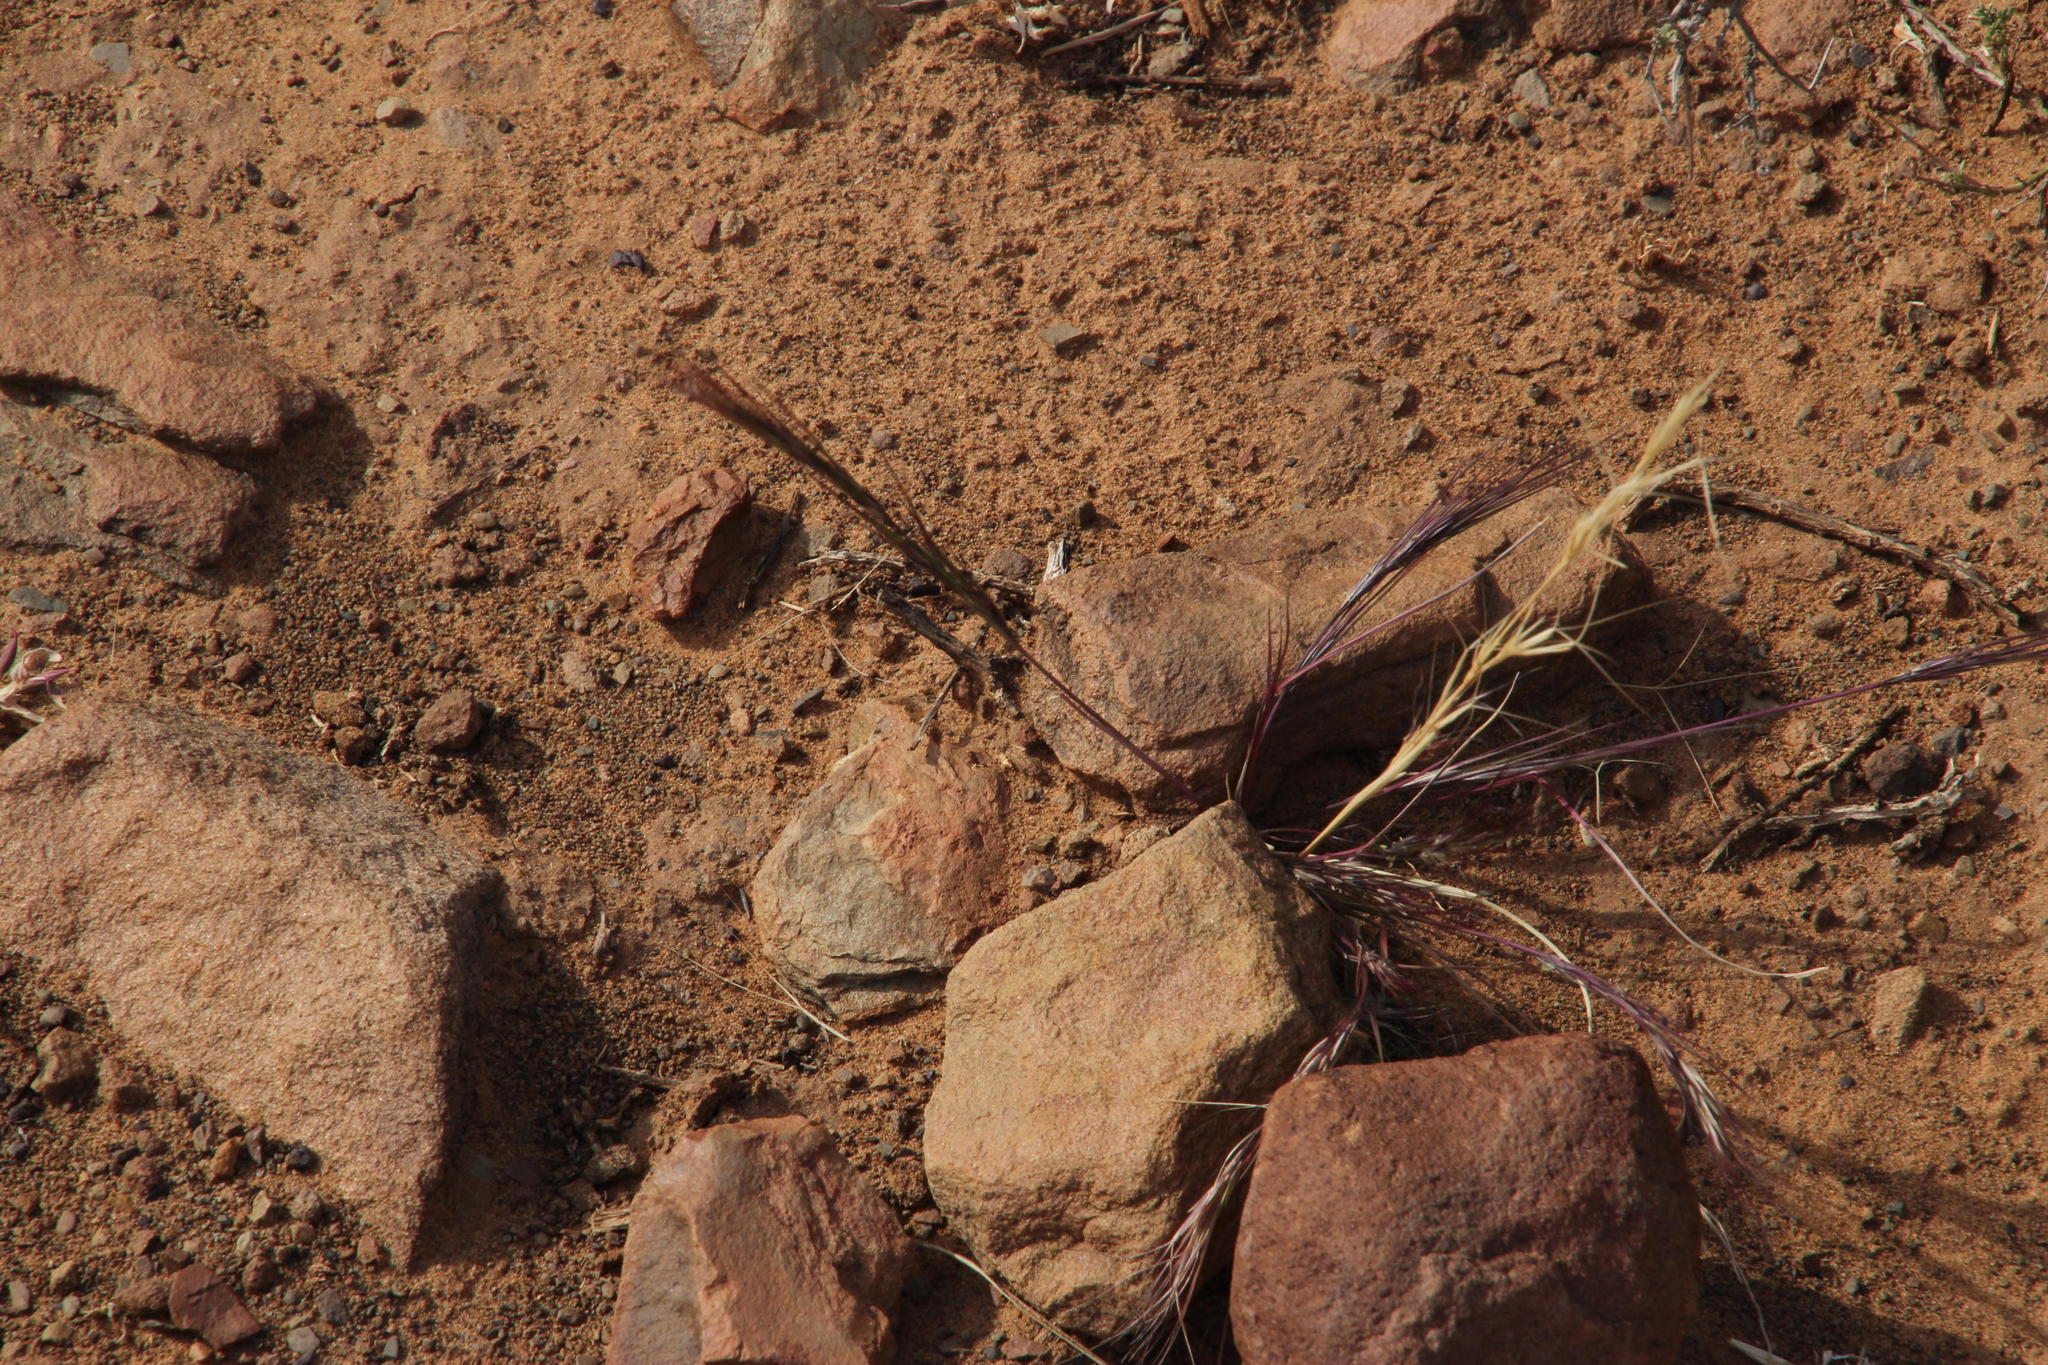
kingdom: Plantae
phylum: Tracheophyta
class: Liliopsida
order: Poales
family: Poaceae
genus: Aristida
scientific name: Aristida adscensionis
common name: Sixweeks threeawn
